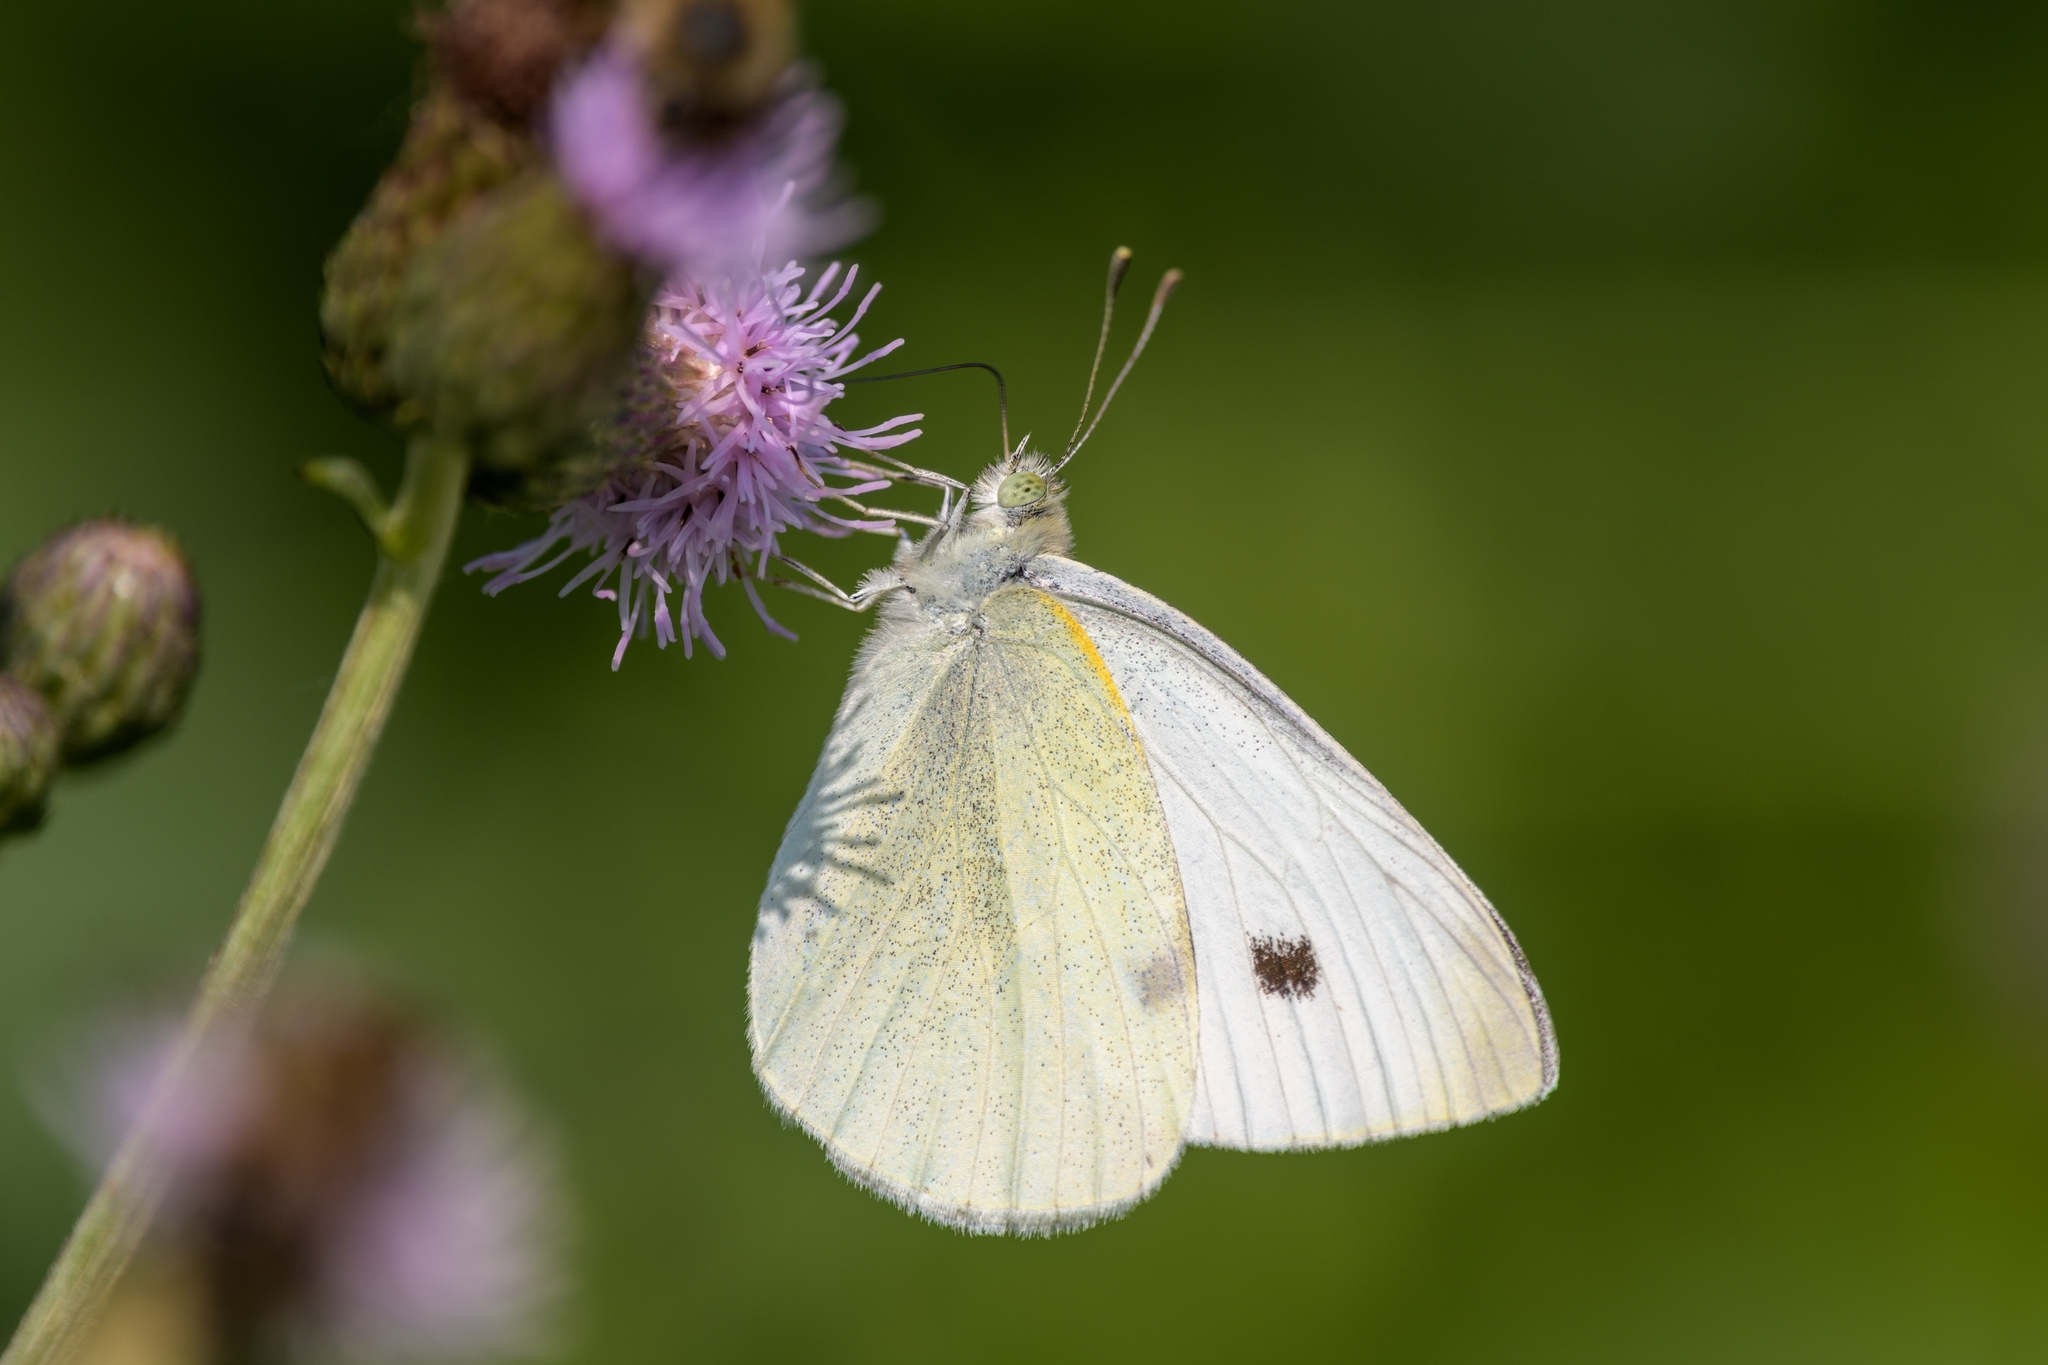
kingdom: Animalia
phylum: Arthropoda
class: Insecta
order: Lepidoptera
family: Pieridae
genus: Pieris
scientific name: Pieris rapae
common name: Small white
